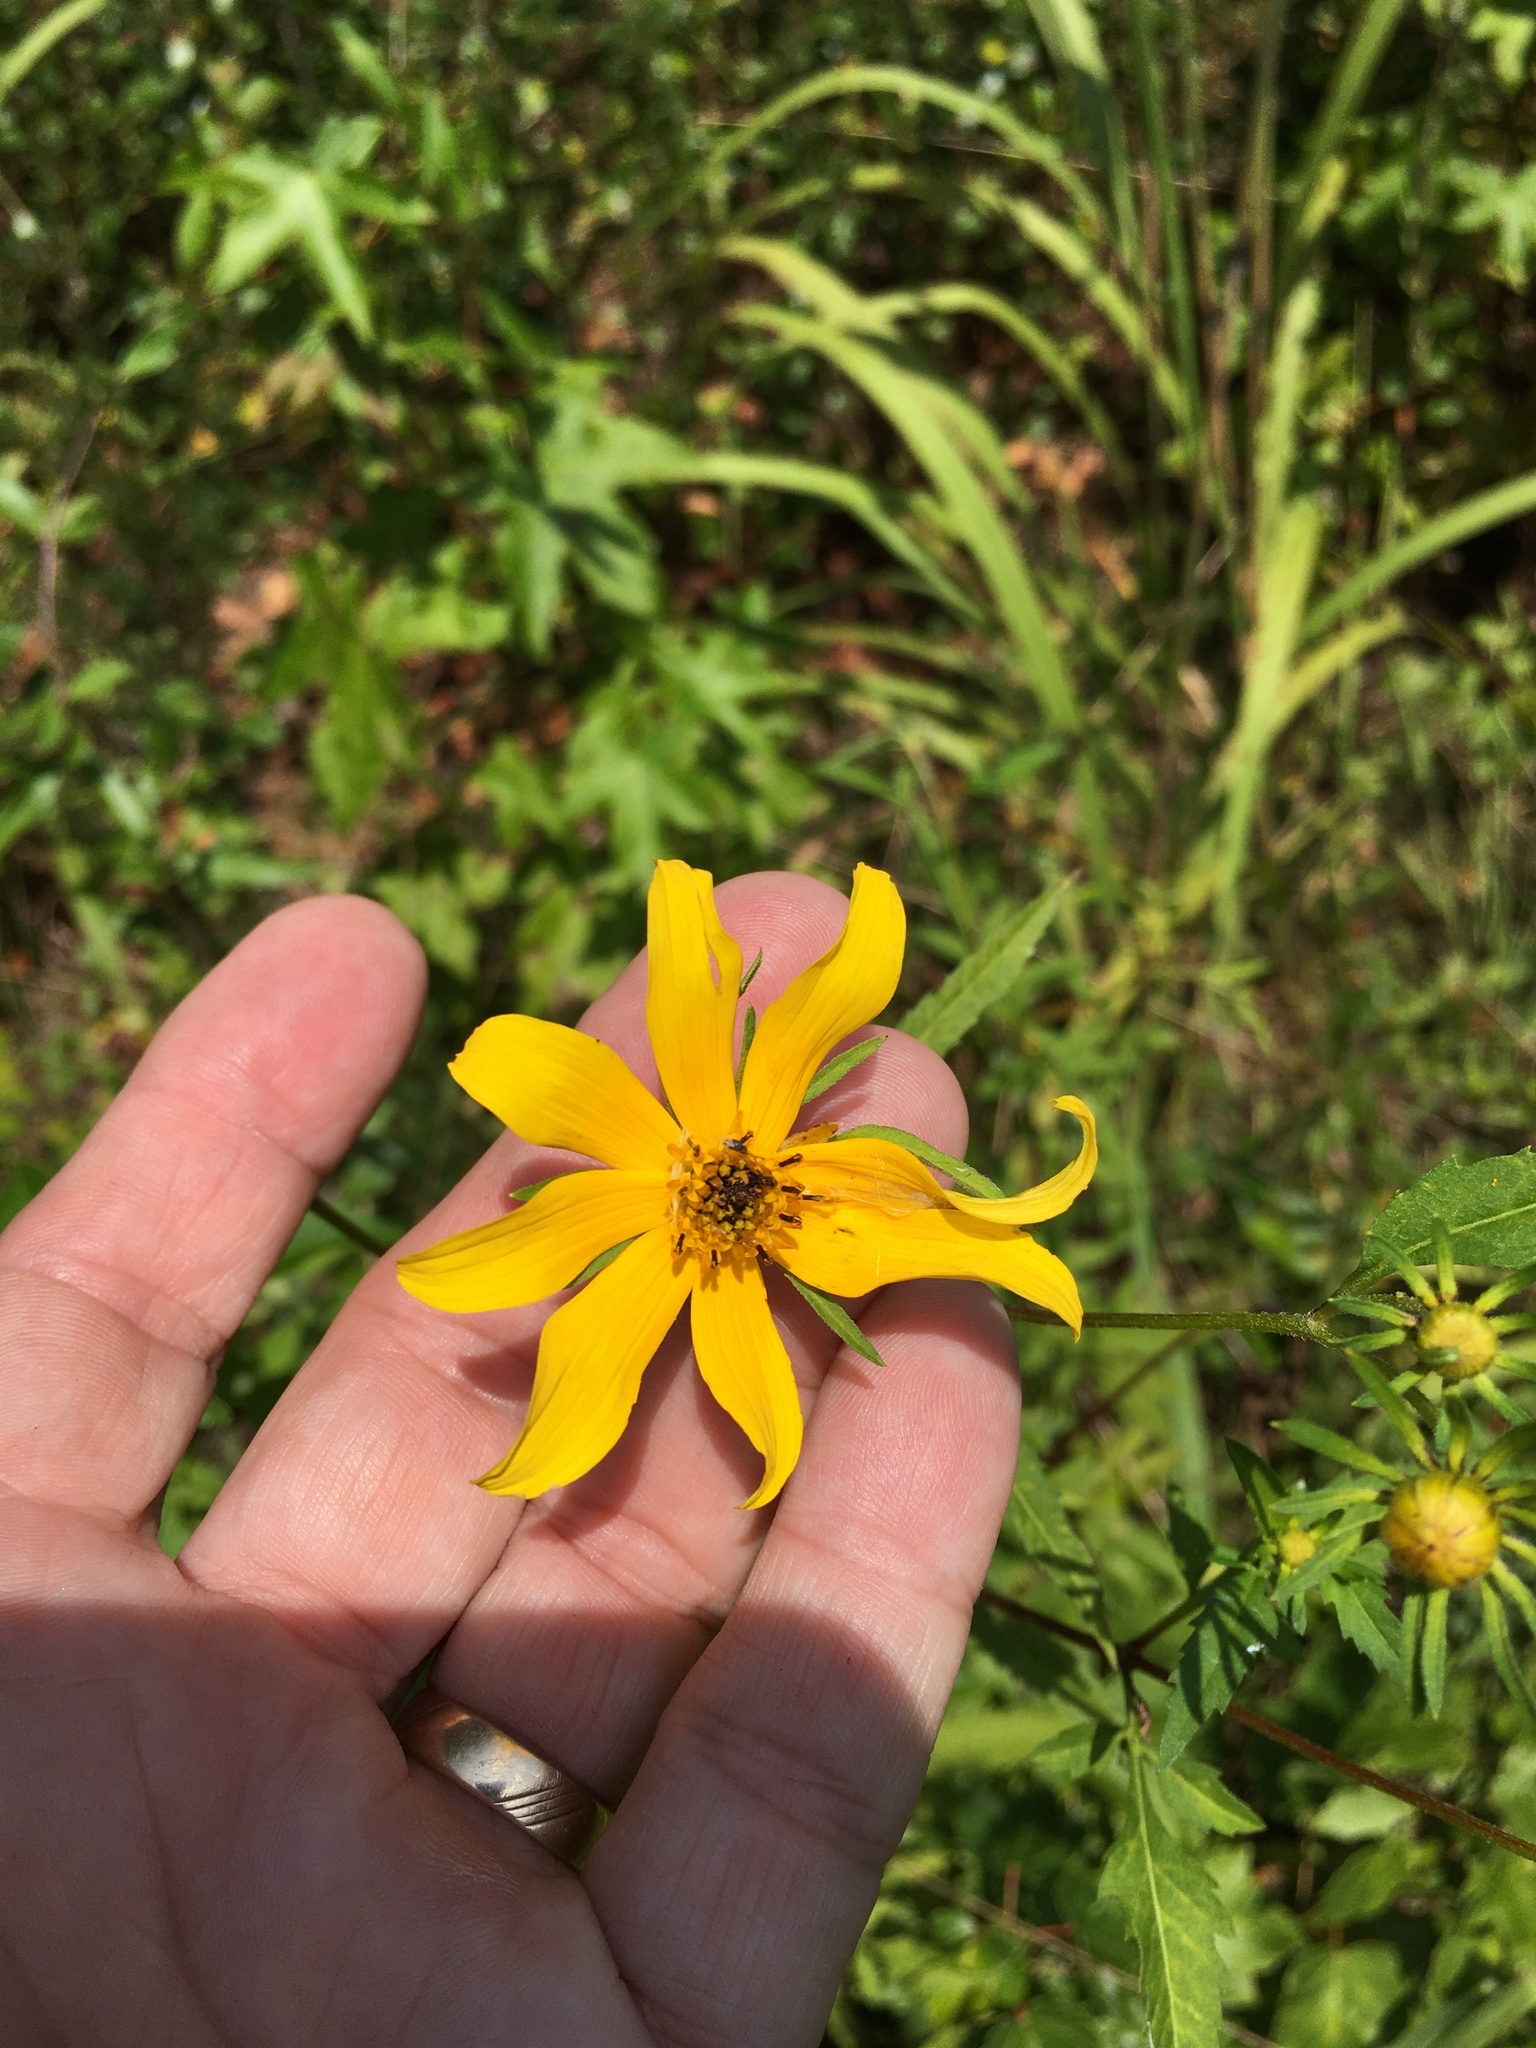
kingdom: Plantae
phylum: Tracheophyta
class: Magnoliopsida
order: Asterales
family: Asteraceae
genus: Bidens
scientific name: Bidens aristosa
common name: Western tickseed
